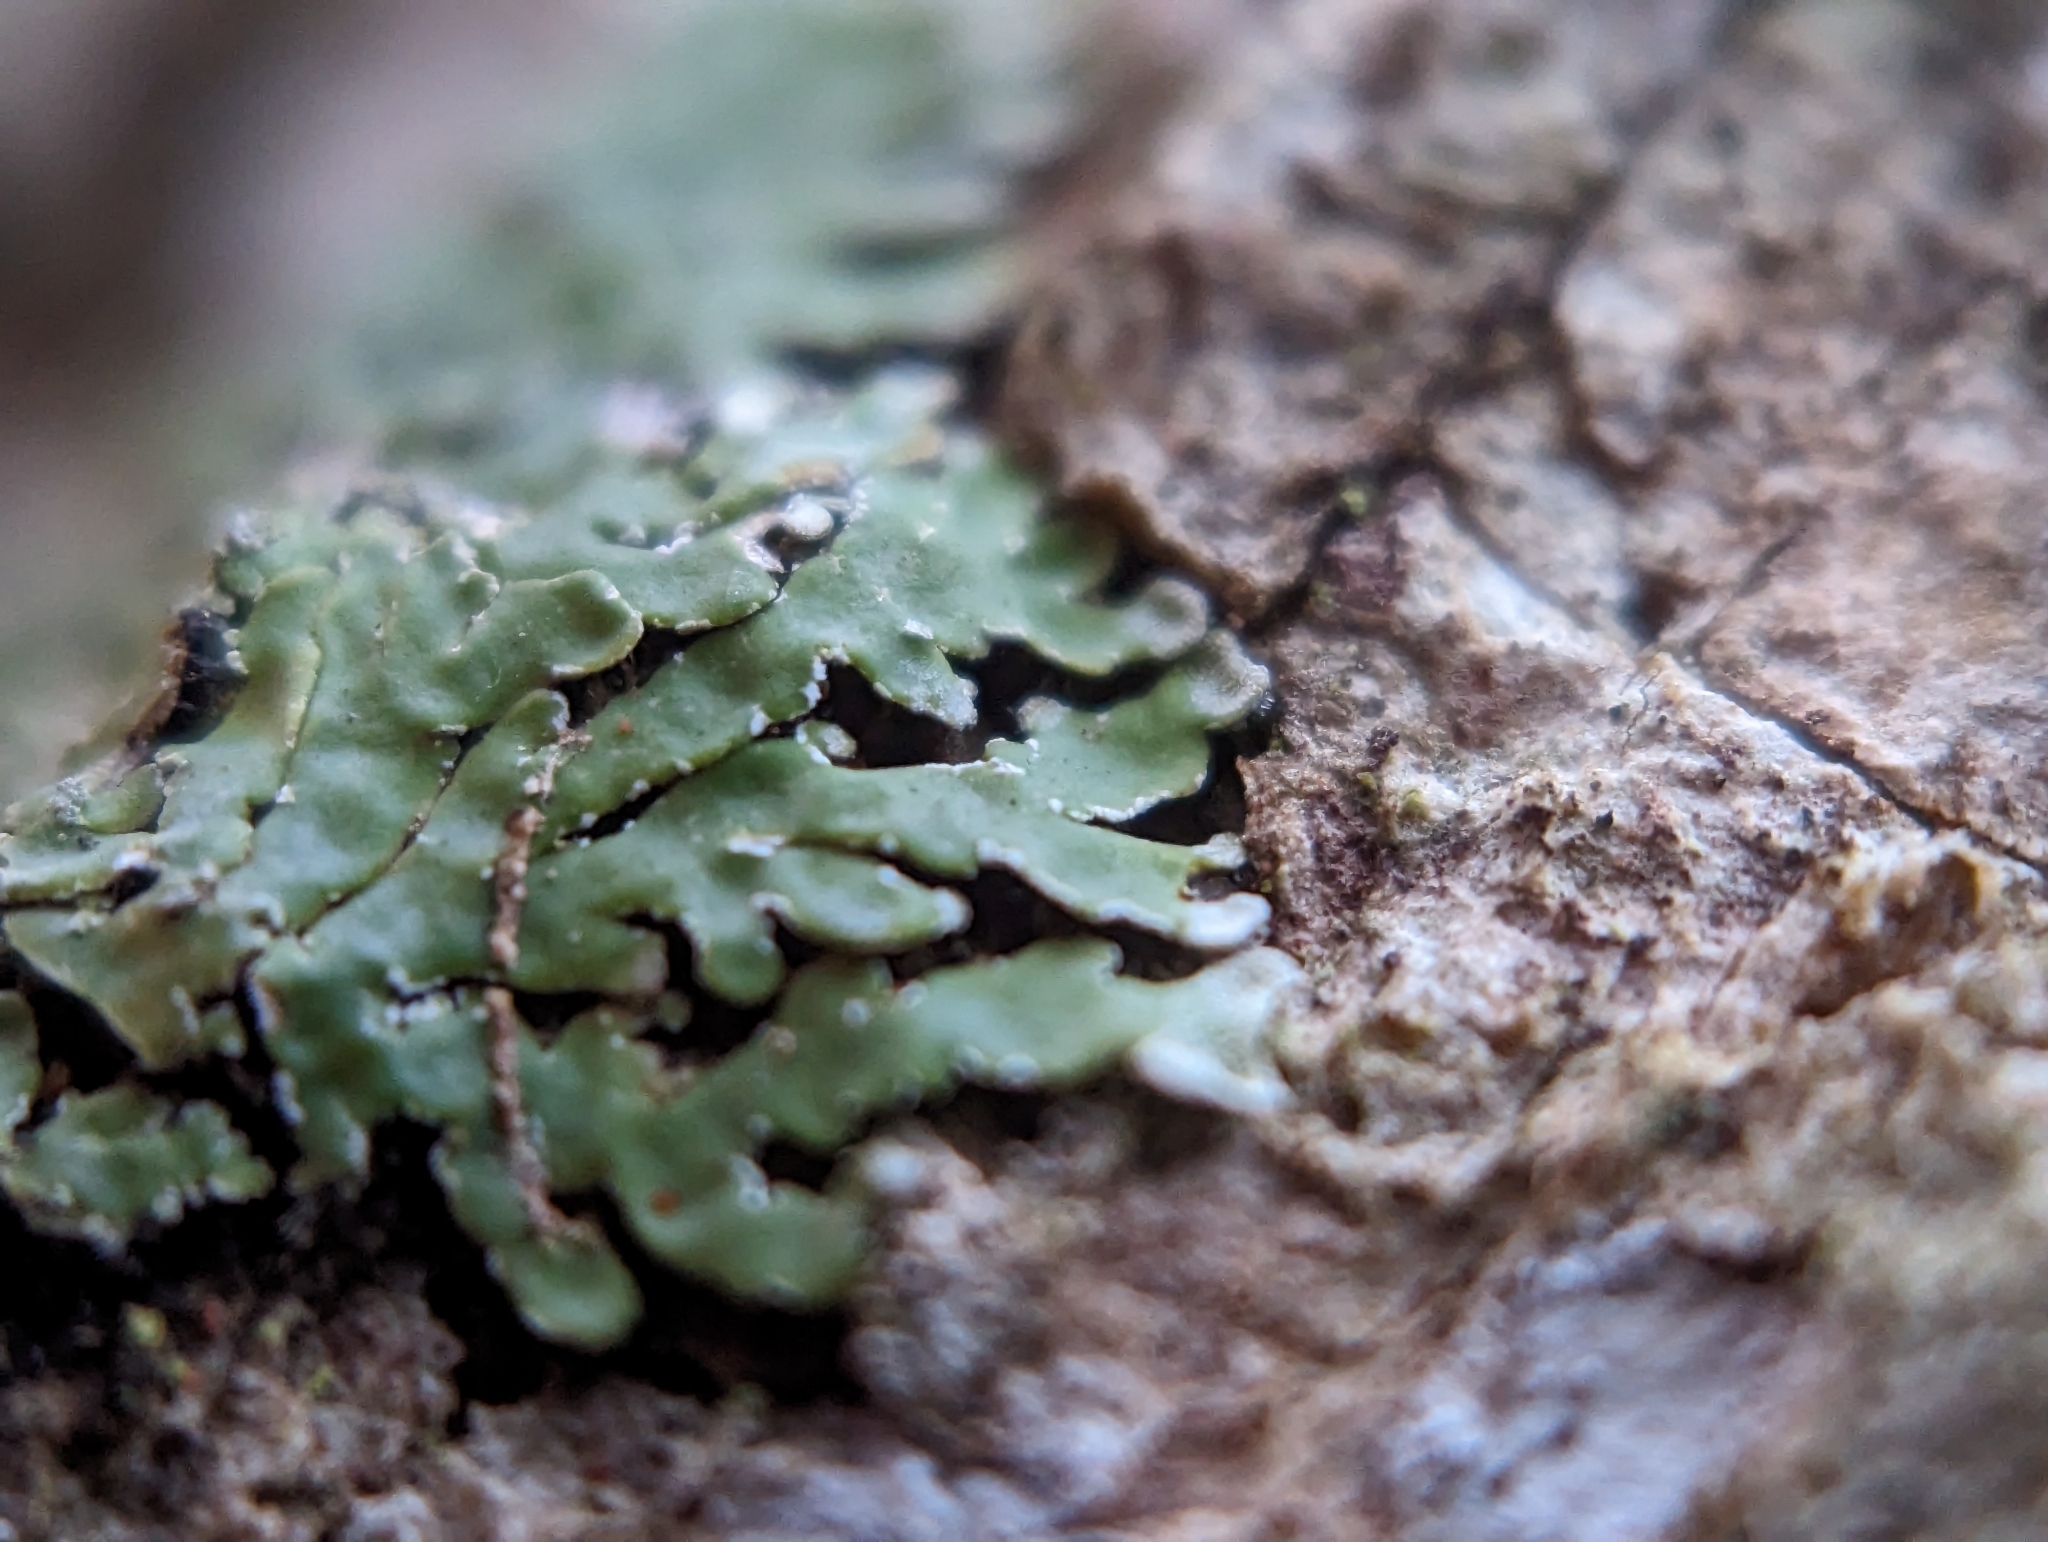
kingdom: Fungi
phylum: Ascomycota
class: Lecanoromycetes
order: Caliciales
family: Caliciaceae
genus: Pyxine
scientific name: Pyxine sorediata
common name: Mustard lichen
